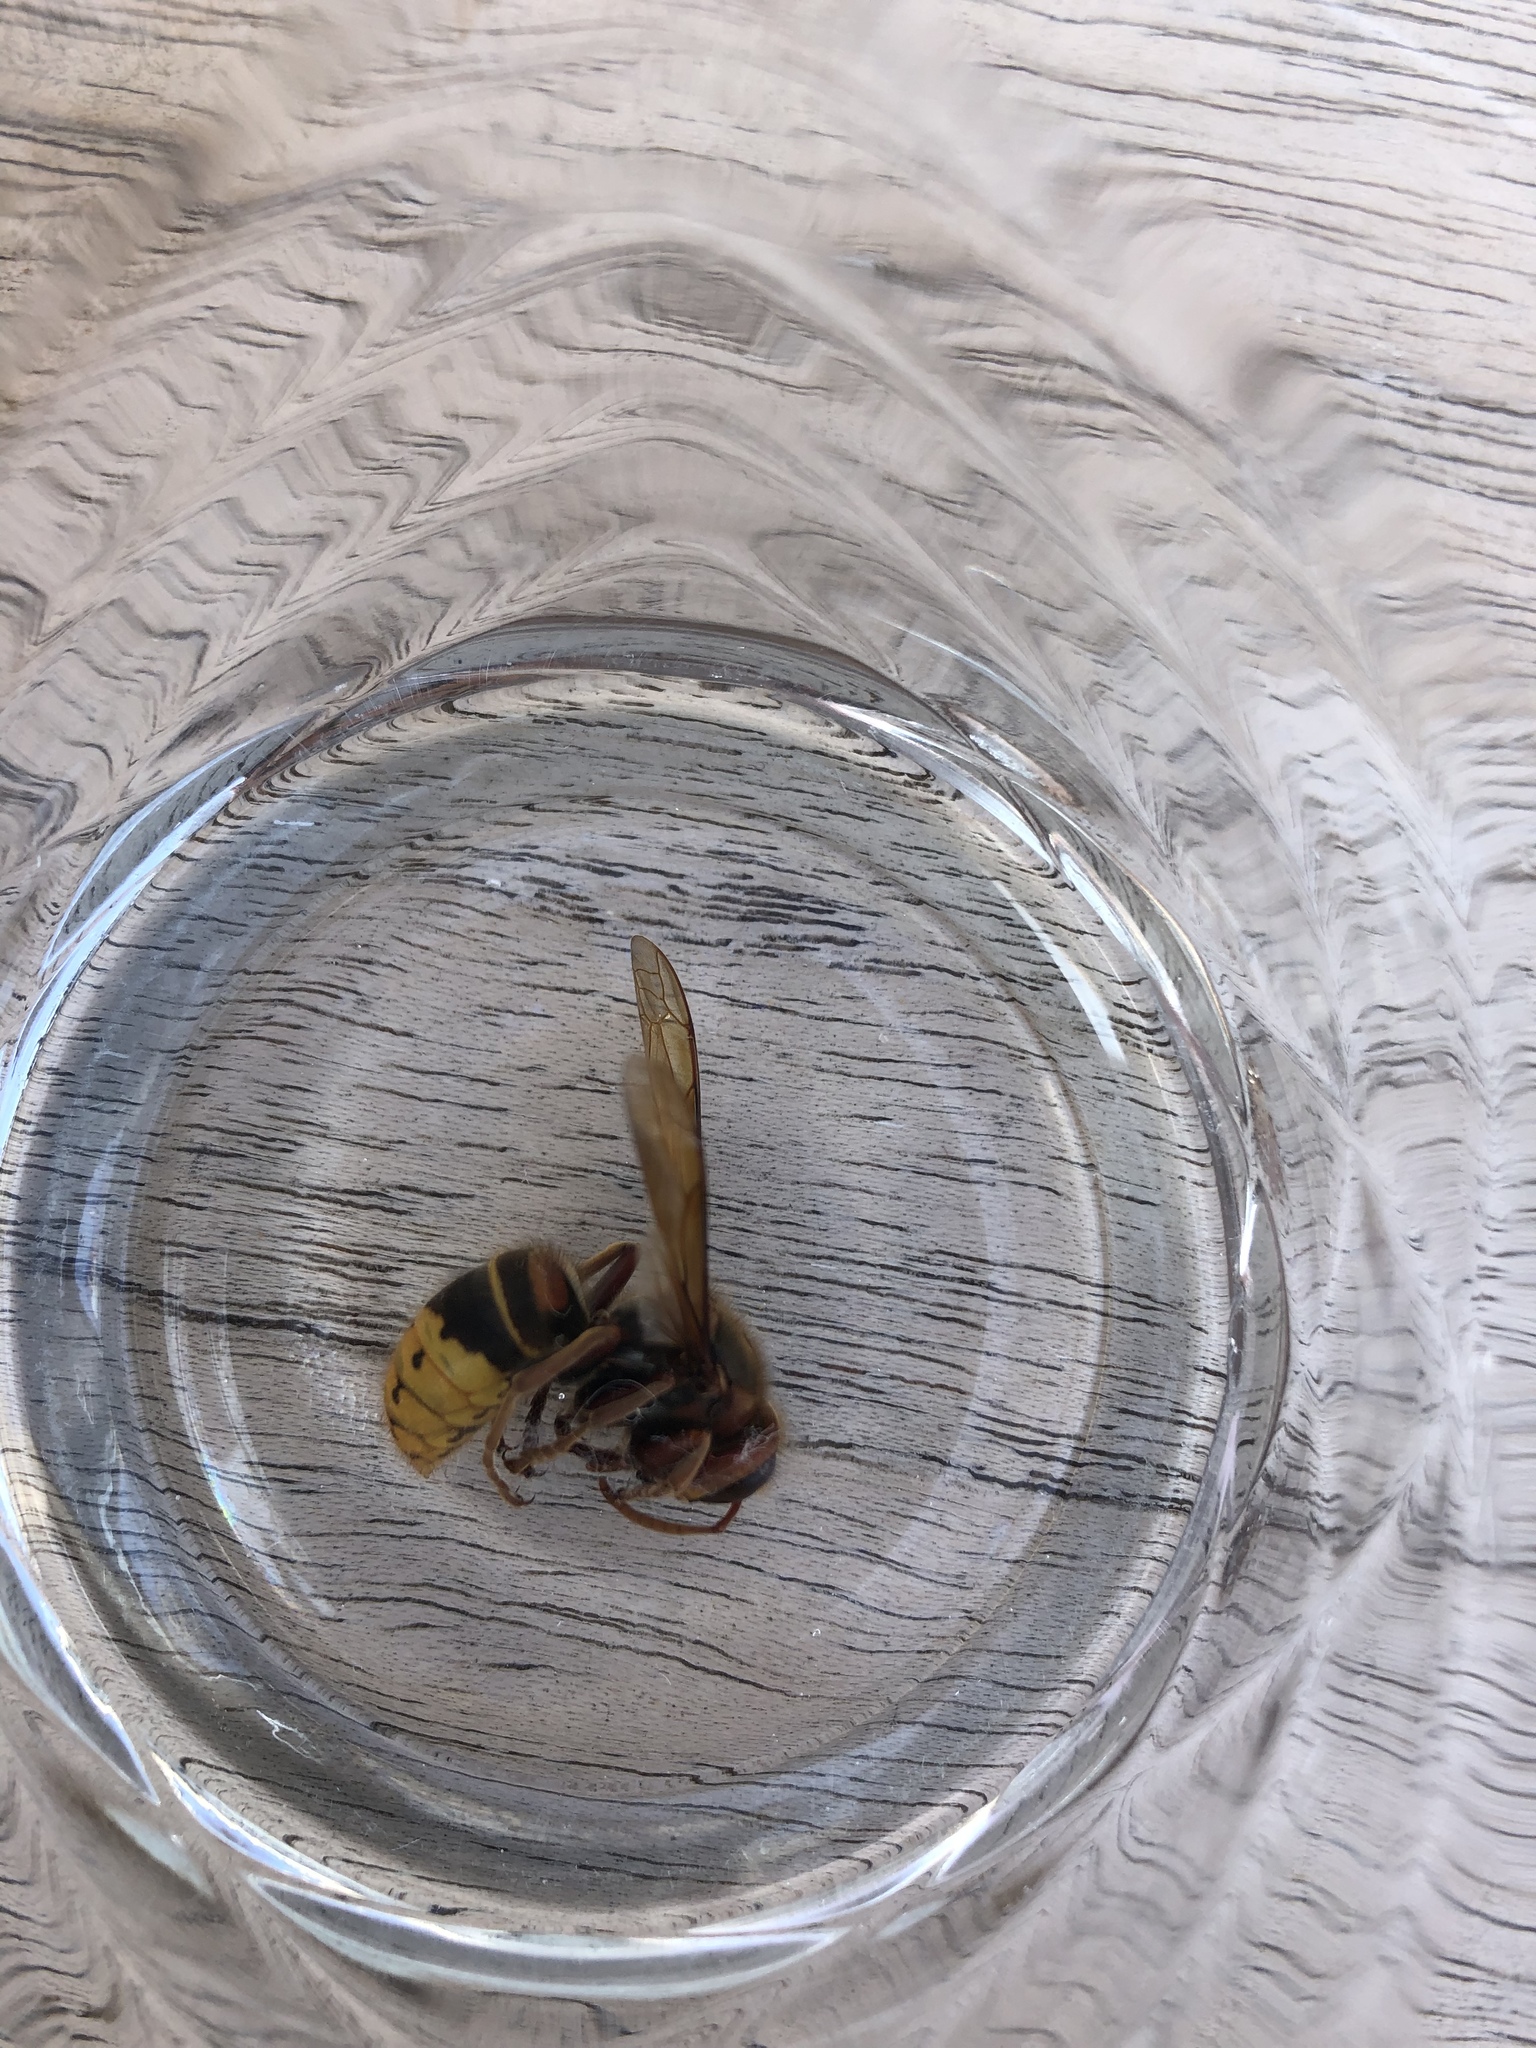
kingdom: Animalia
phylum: Arthropoda
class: Insecta
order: Hymenoptera
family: Vespidae
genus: Vespa
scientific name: Vespa crabro
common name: Hornet
